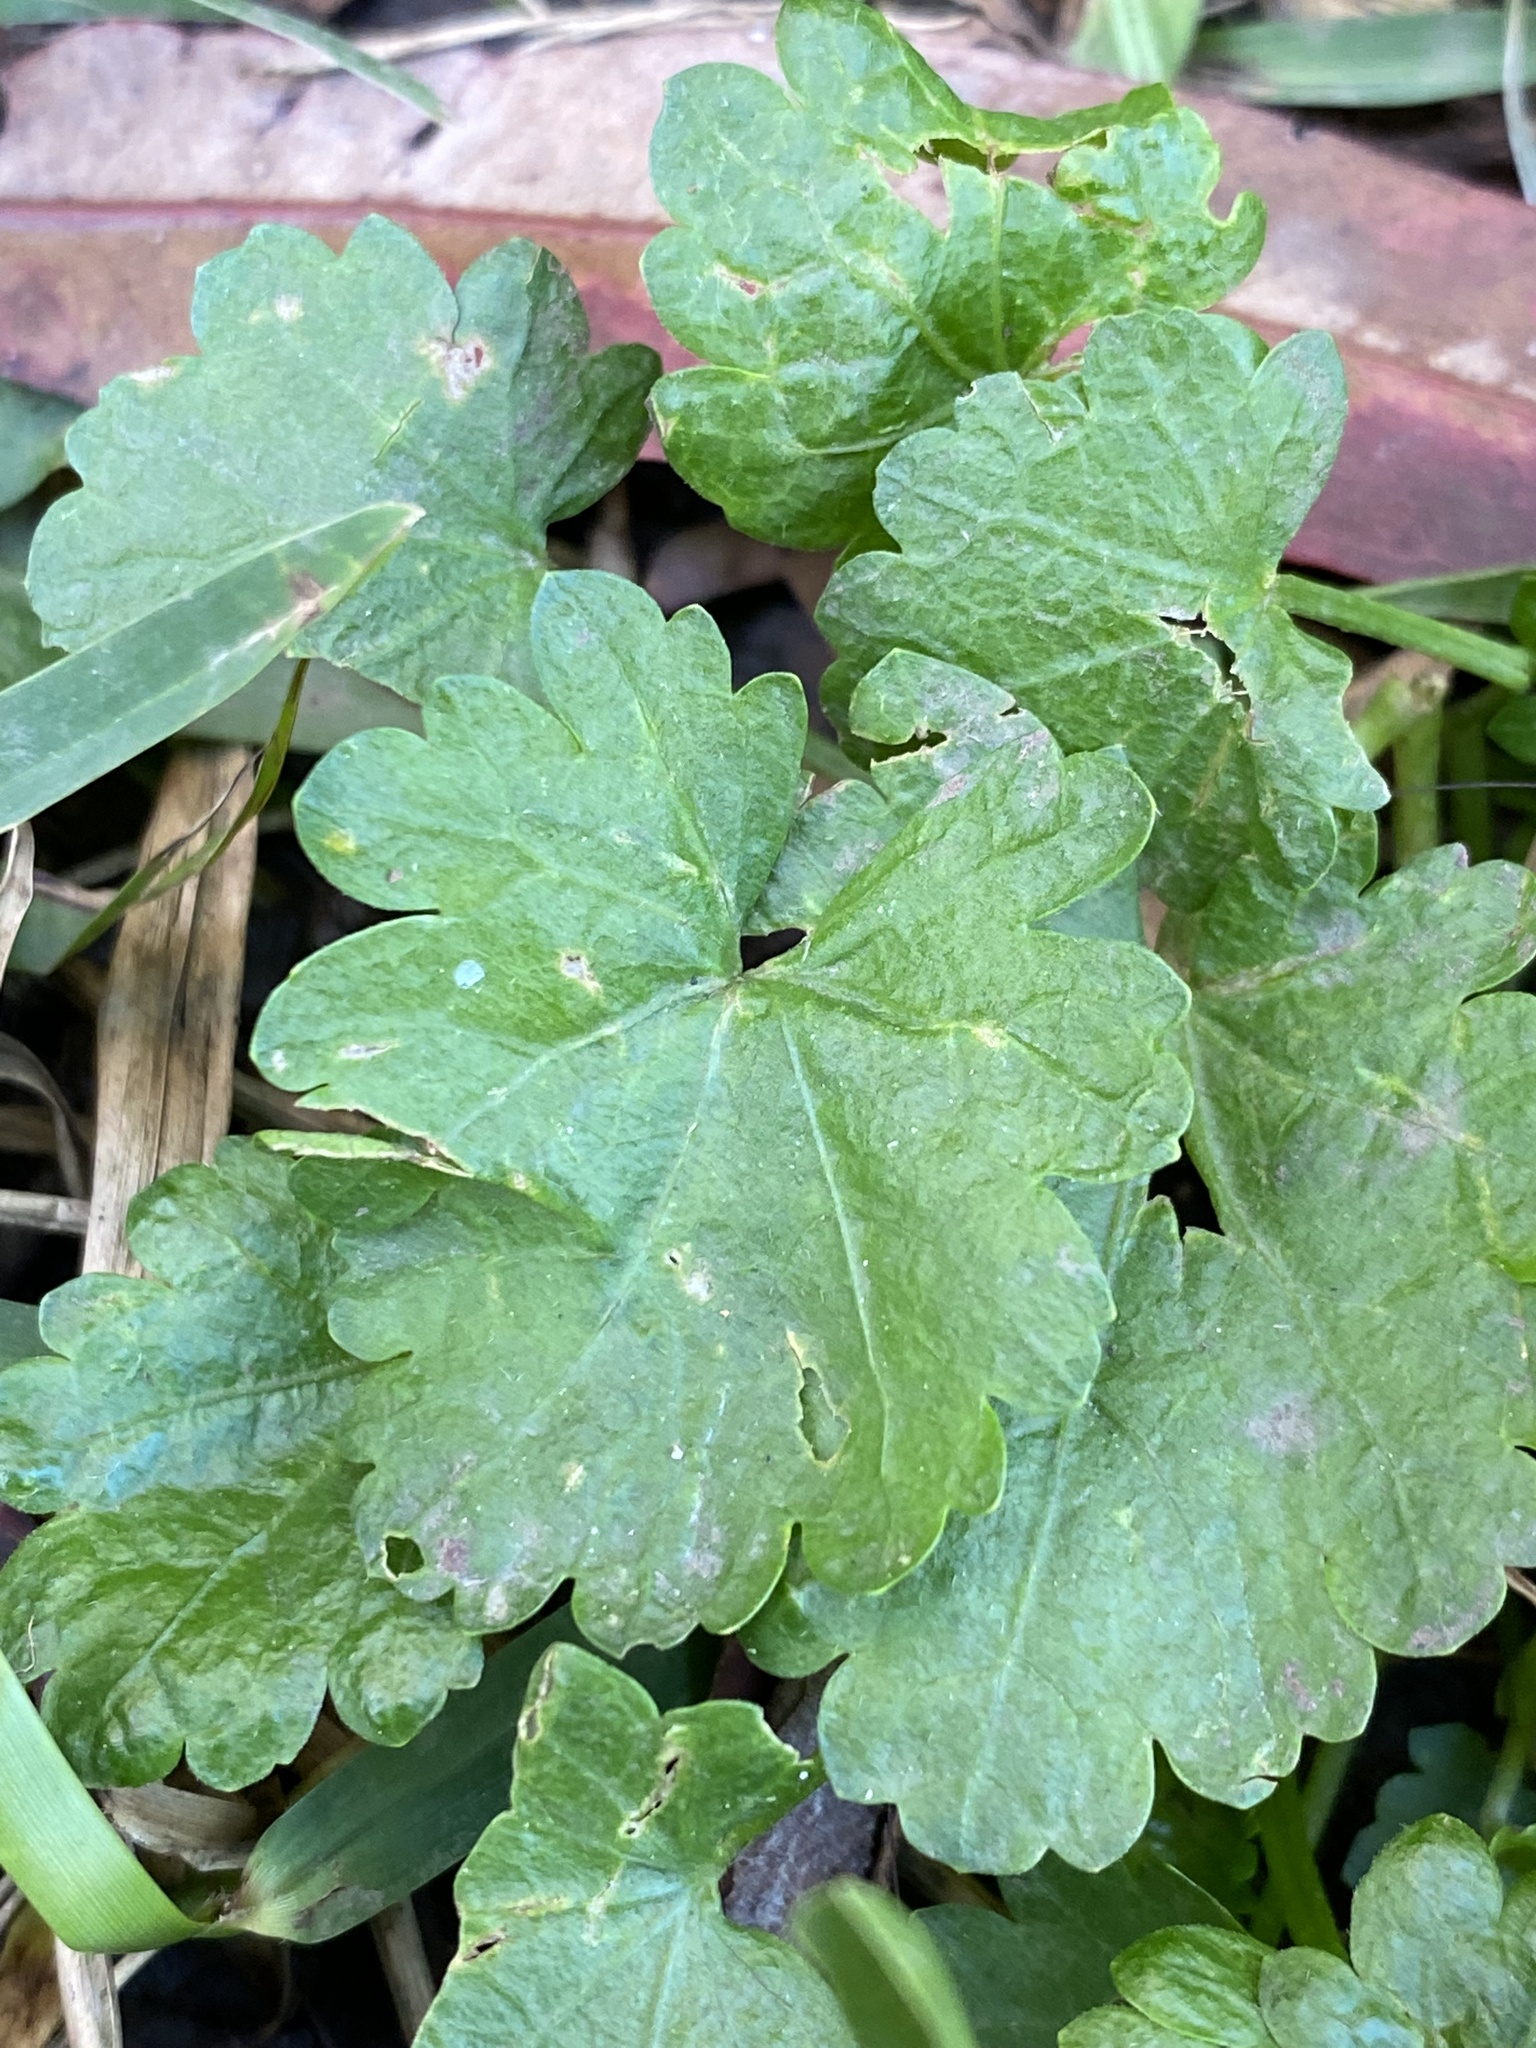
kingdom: Plantae
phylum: Tracheophyta
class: Magnoliopsida
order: Malvales
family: Malvaceae
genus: Modiola
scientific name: Modiola caroliniana
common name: Carolina bristlemallow
